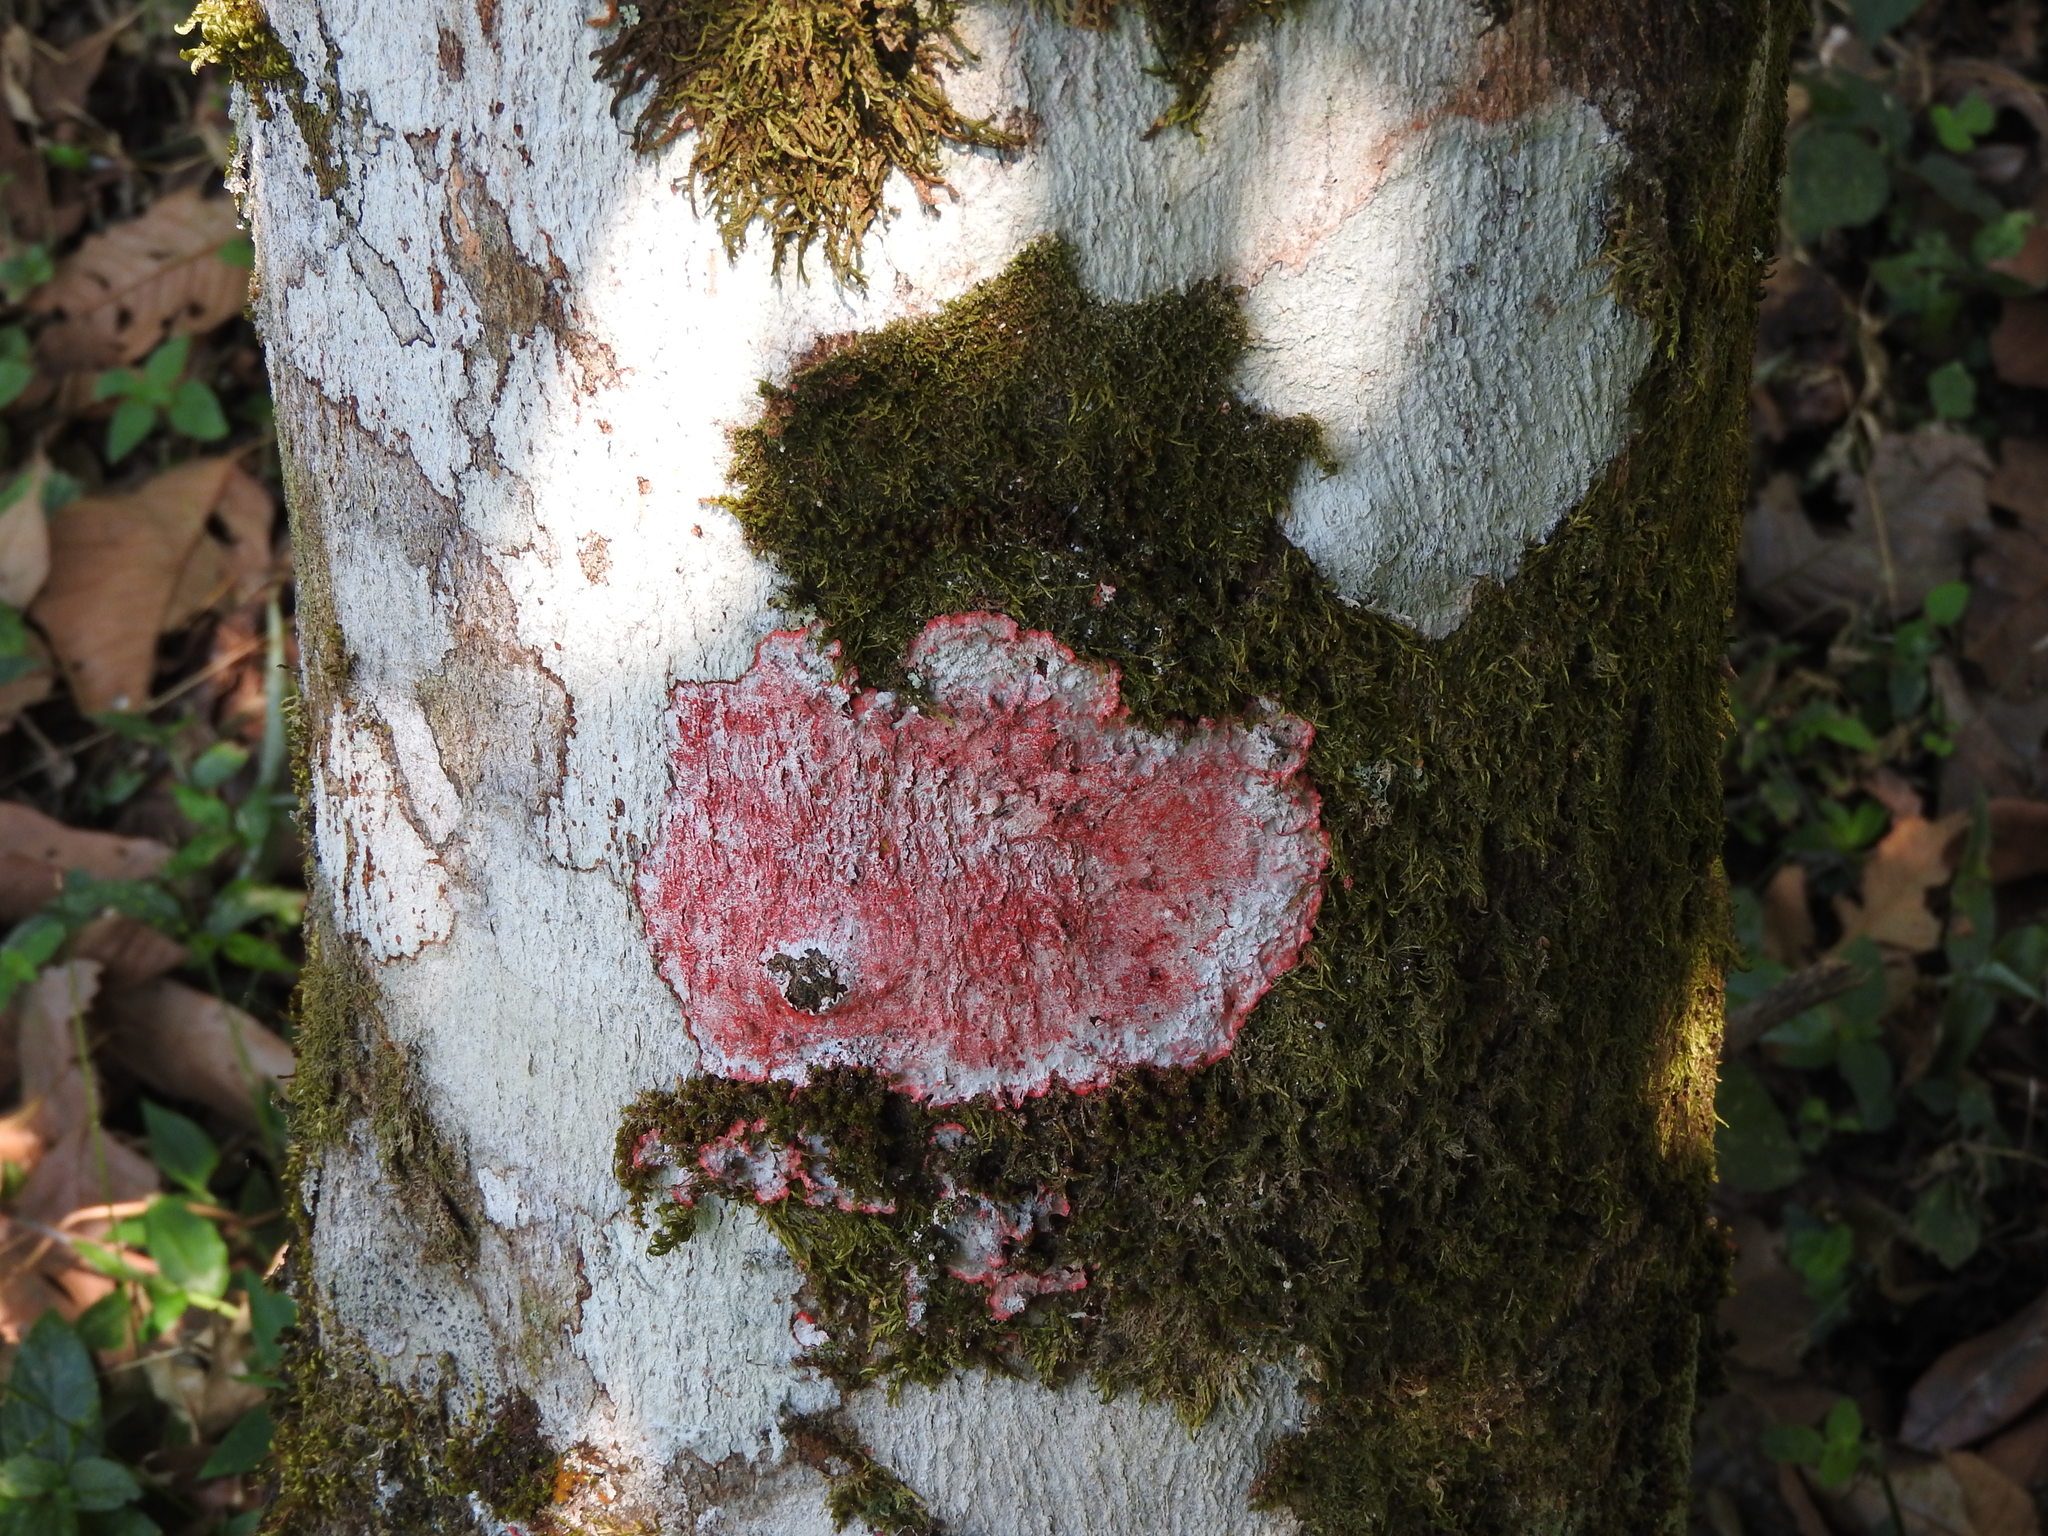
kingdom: Fungi
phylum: Ascomycota
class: Arthoniomycetes
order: Arthoniales
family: Arthoniaceae
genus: Herpothallon
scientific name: Herpothallon rubrocinctum
